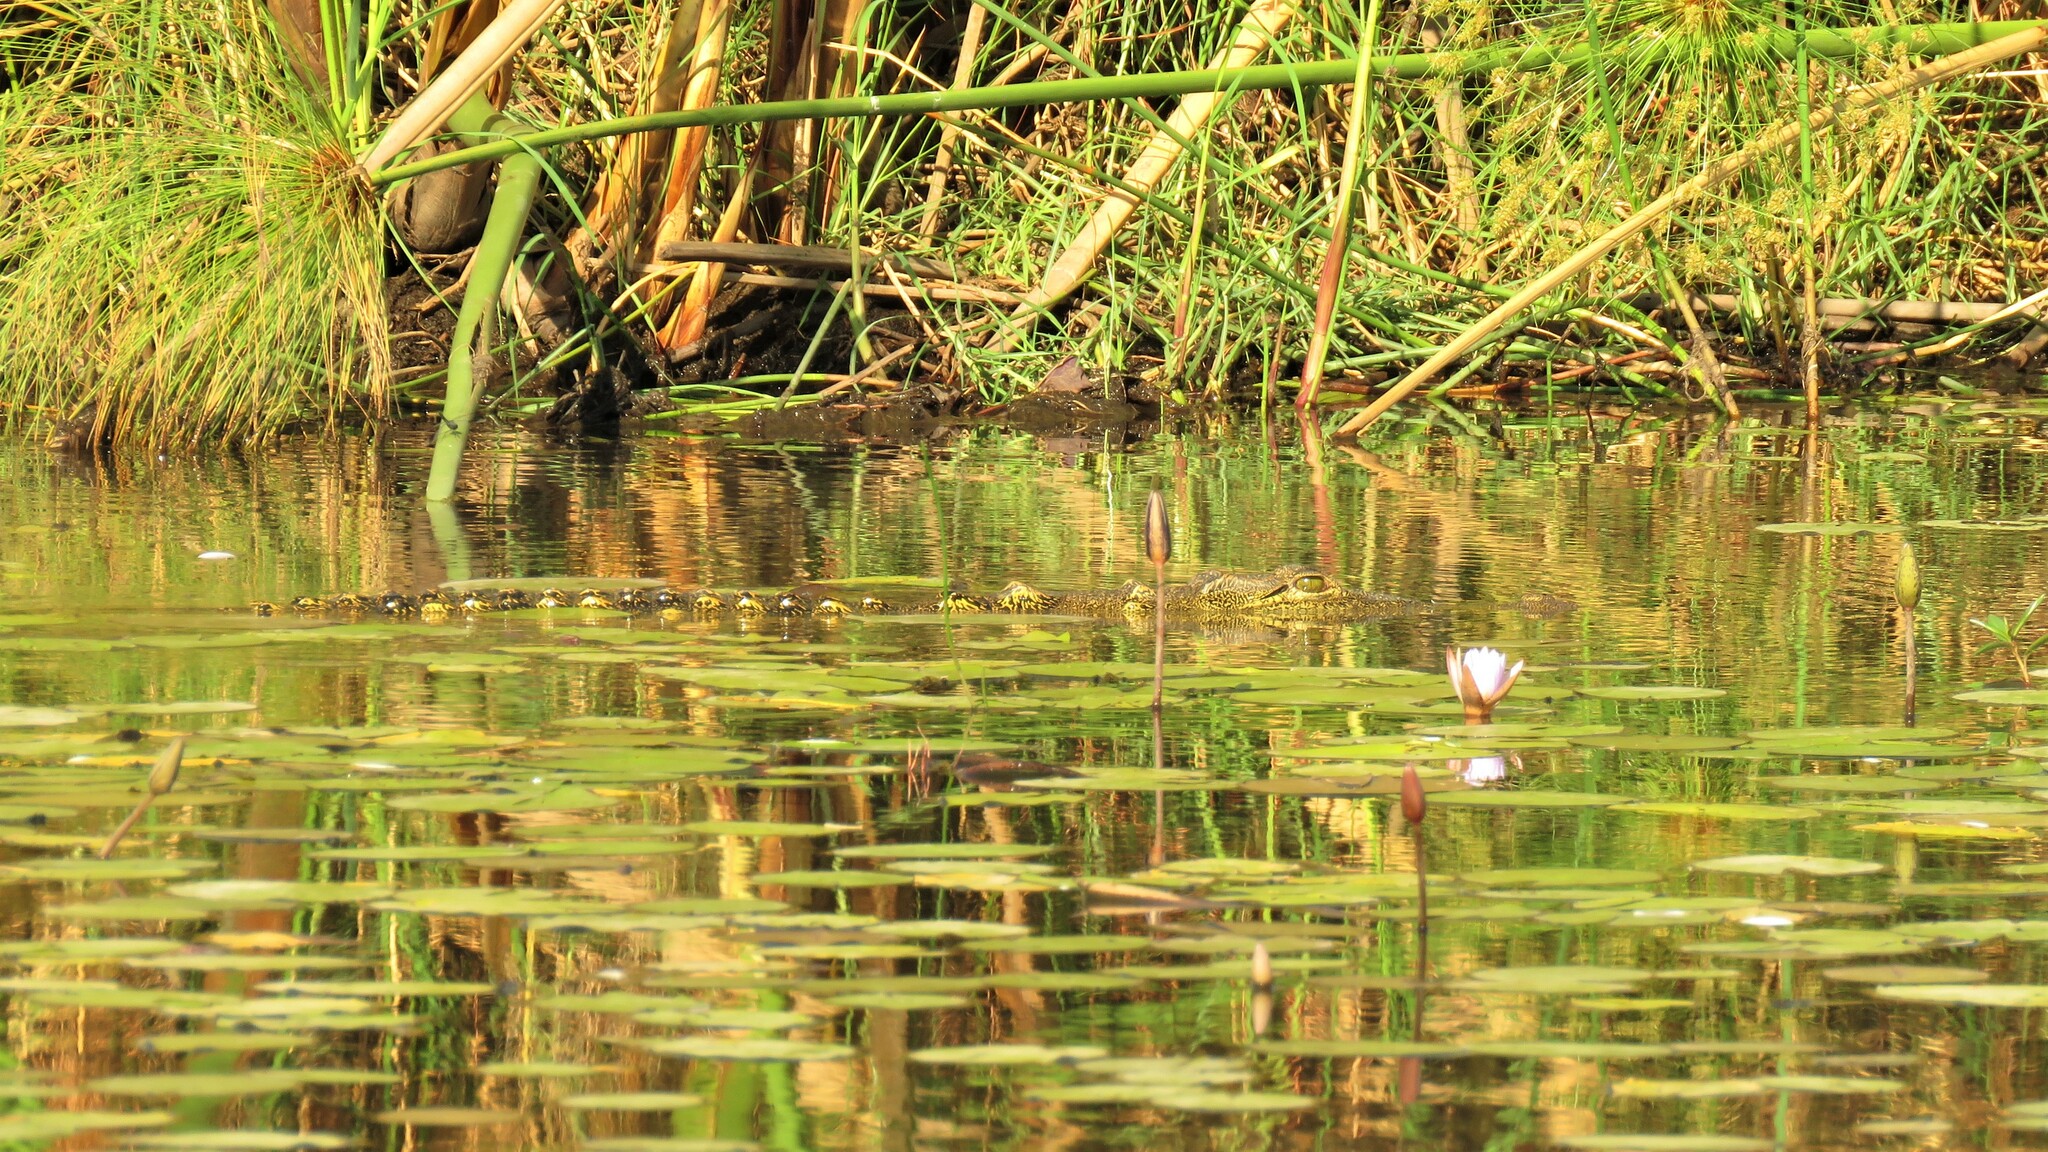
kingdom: Animalia
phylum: Chordata
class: Crocodylia
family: Crocodylidae
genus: Crocodylus
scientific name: Crocodylus niloticus
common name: Nile crocodile
